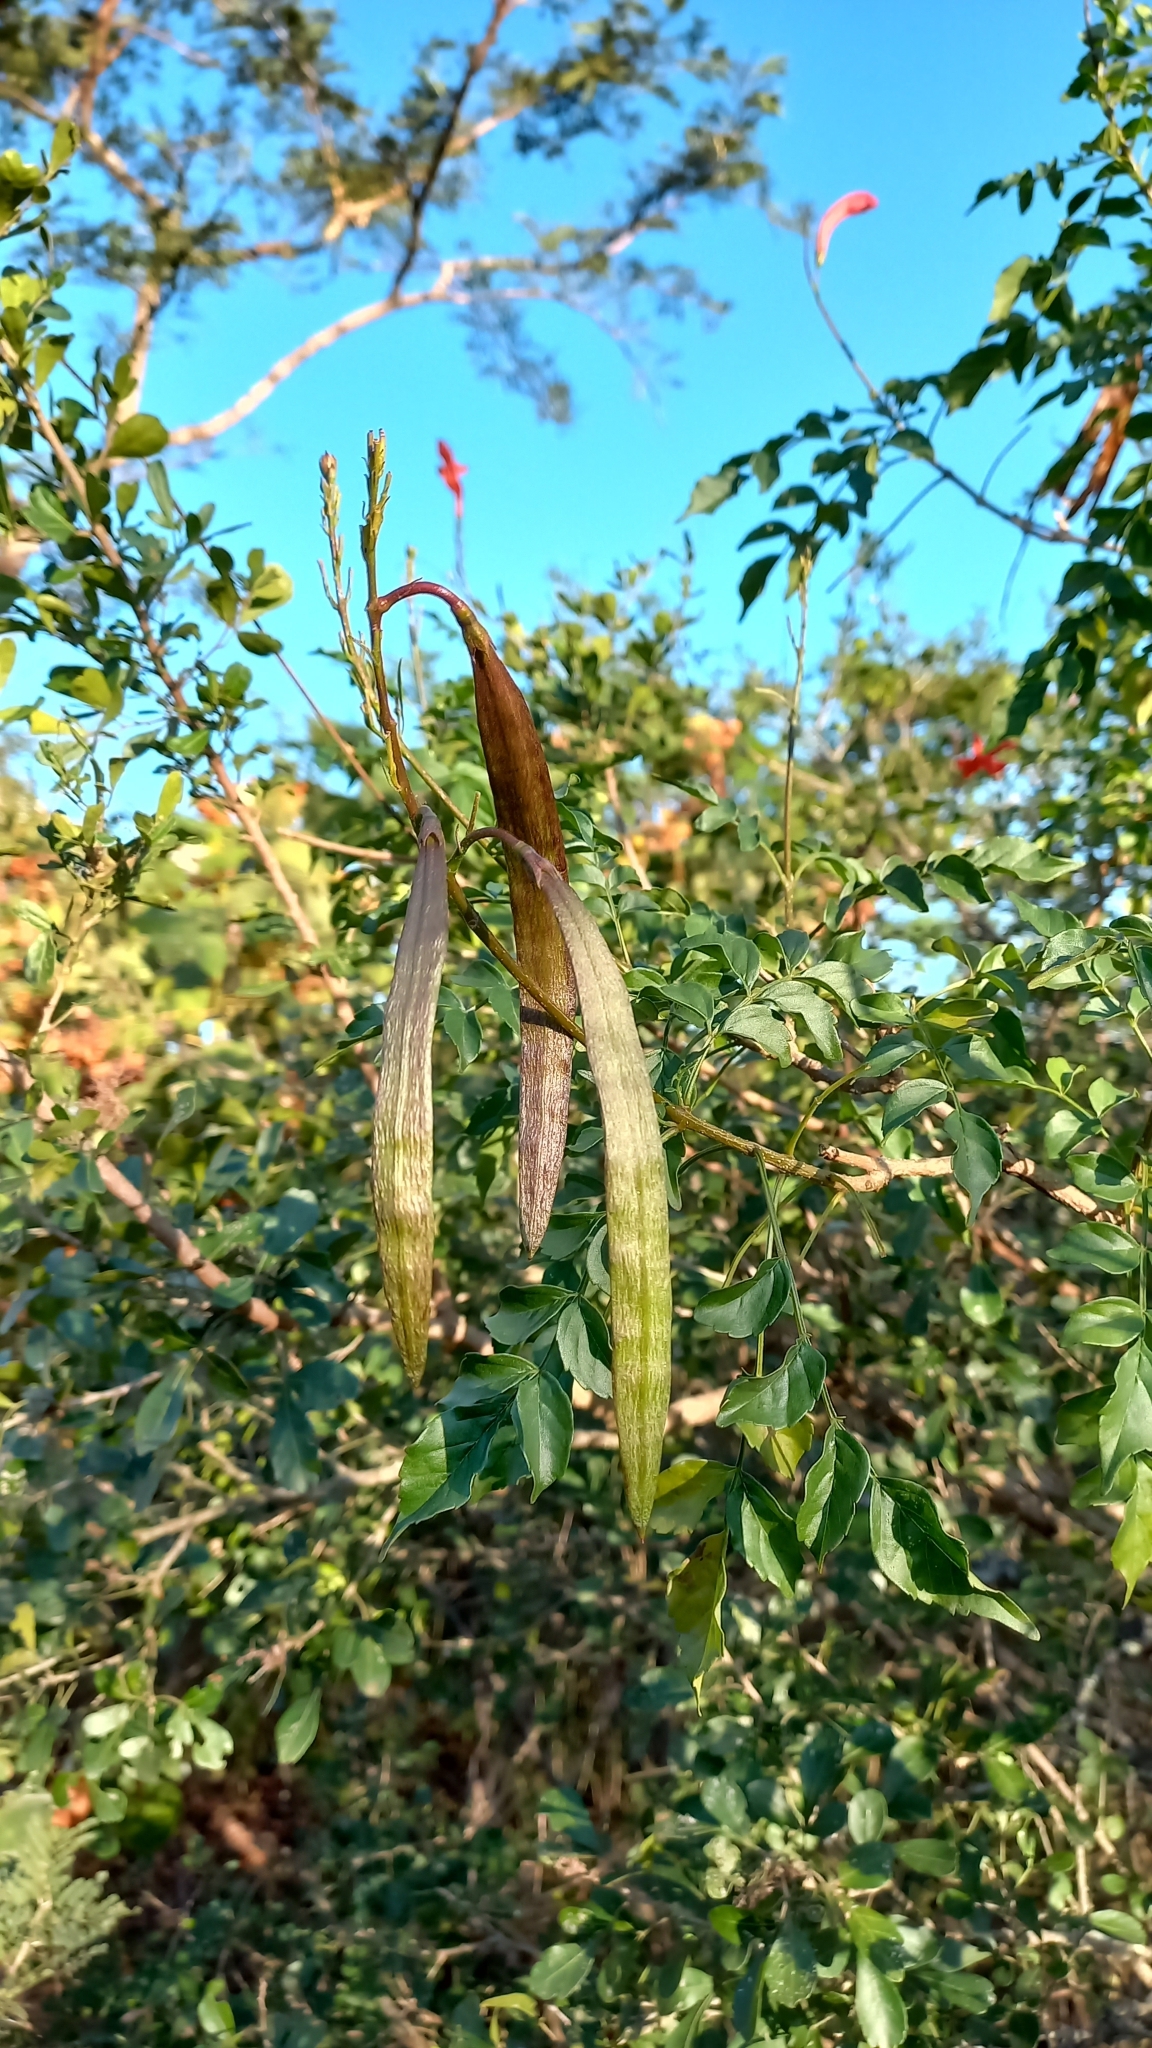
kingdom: Plantae
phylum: Tracheophyta
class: Magnoliopsida
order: Lamiales
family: Bignoniaceae
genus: Tecomaria
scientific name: Tecomaria capensis
